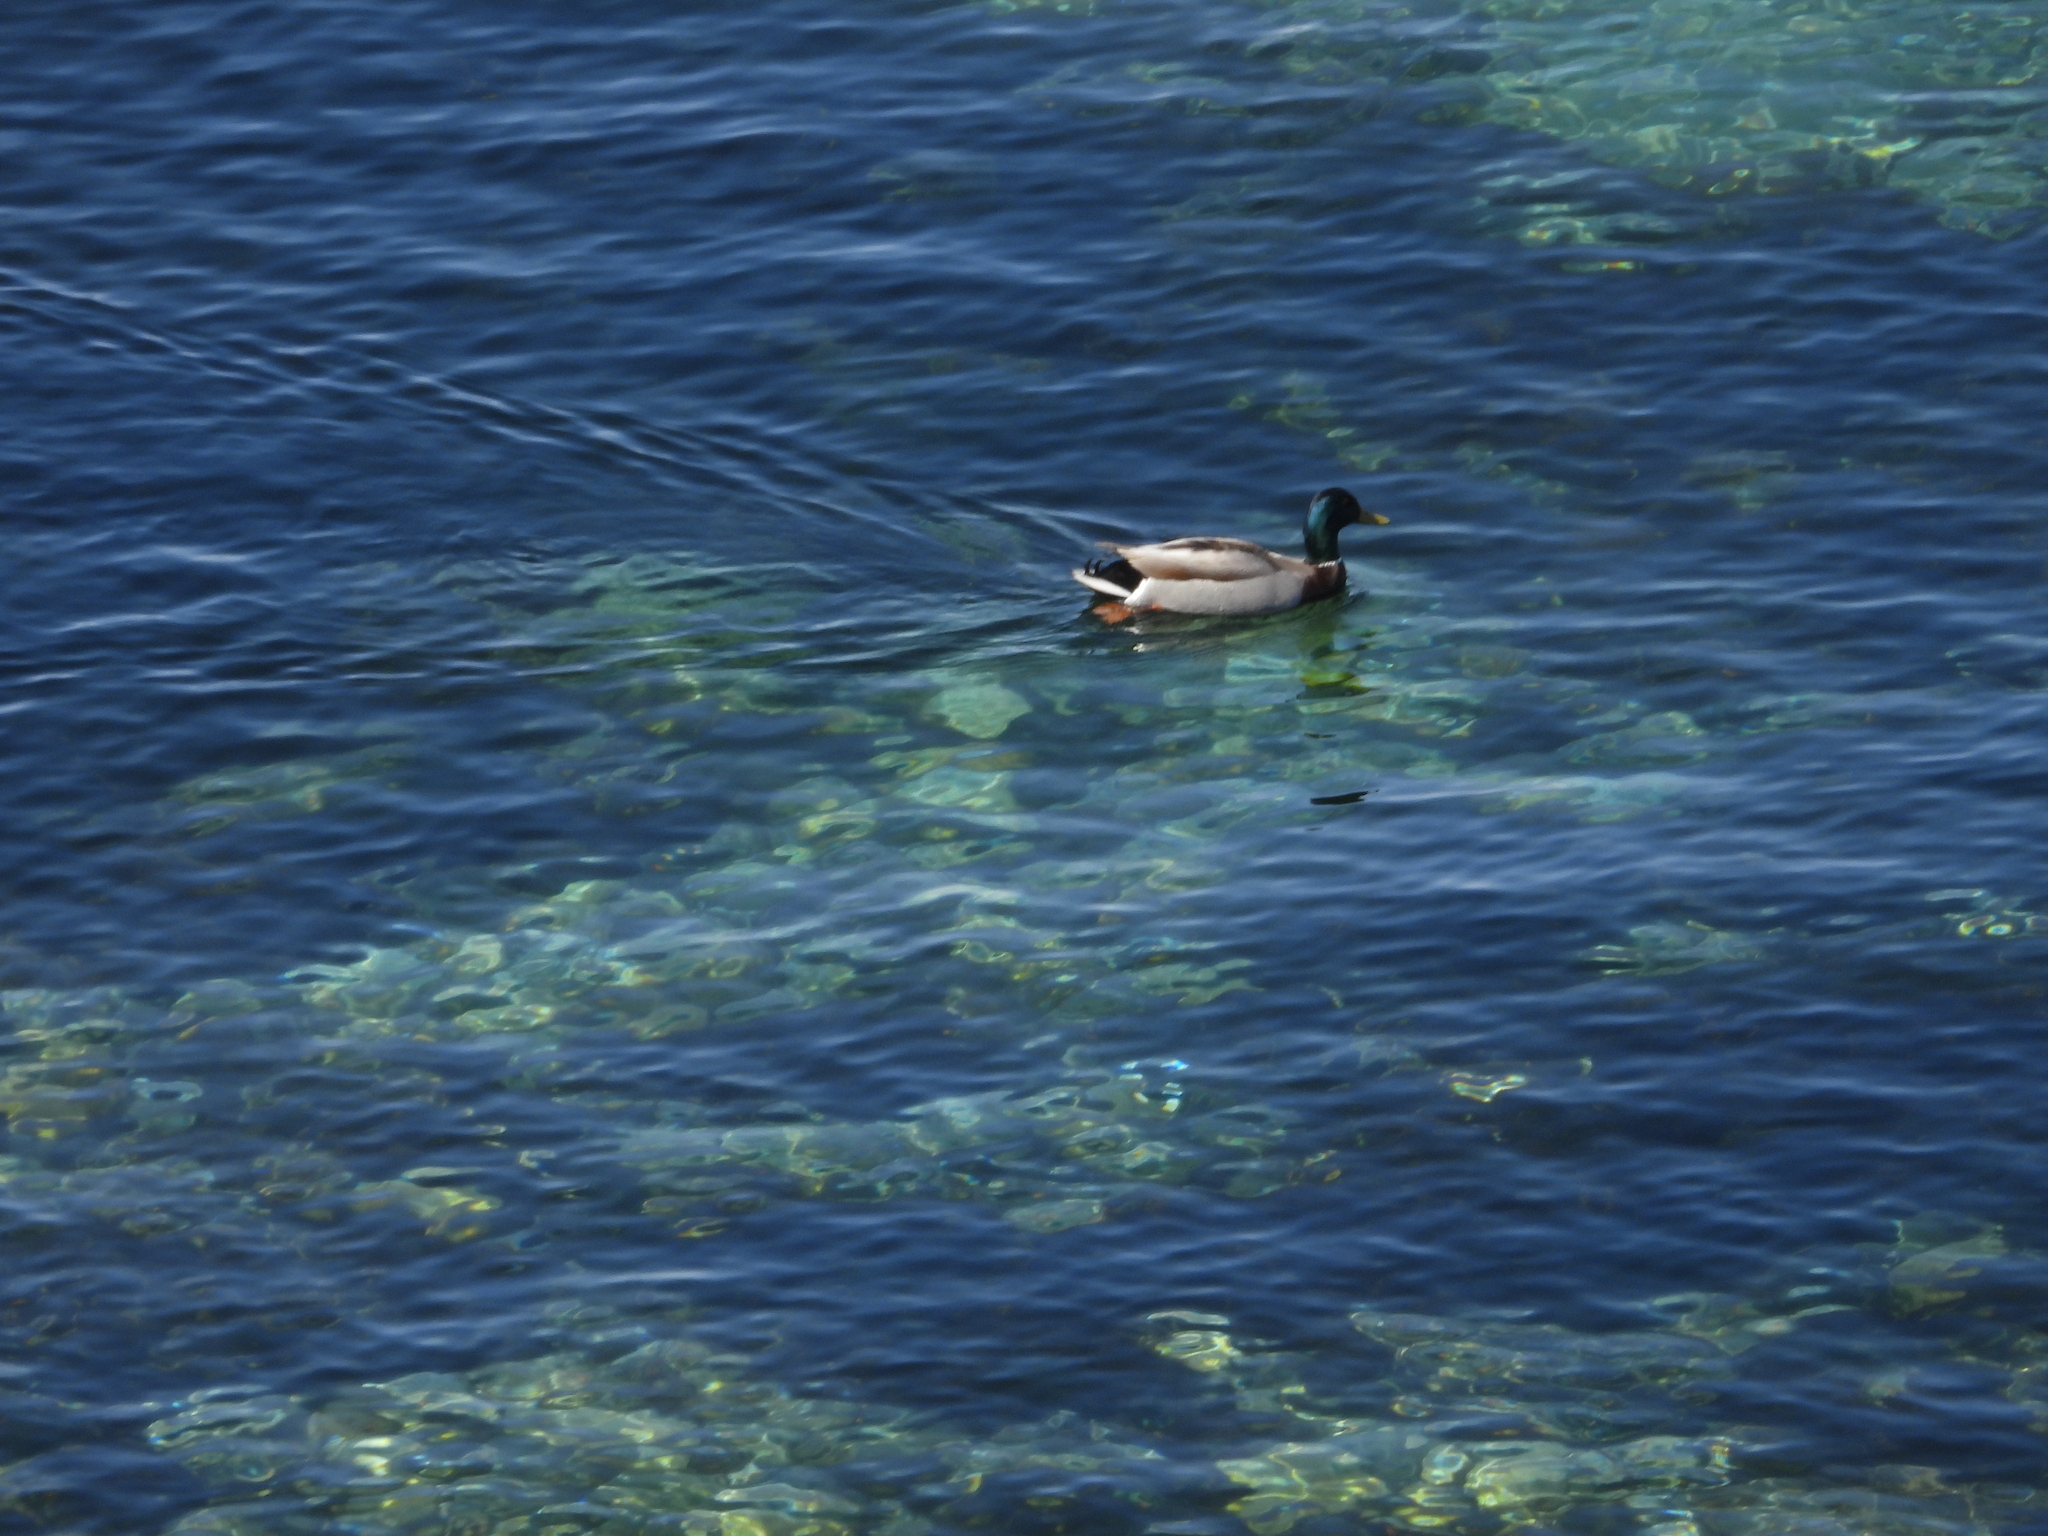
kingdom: Animalia
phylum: Chordata
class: Aves
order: Anseriformes
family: Anatidae
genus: Anas
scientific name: Anas platyrhynchos
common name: Mallard
